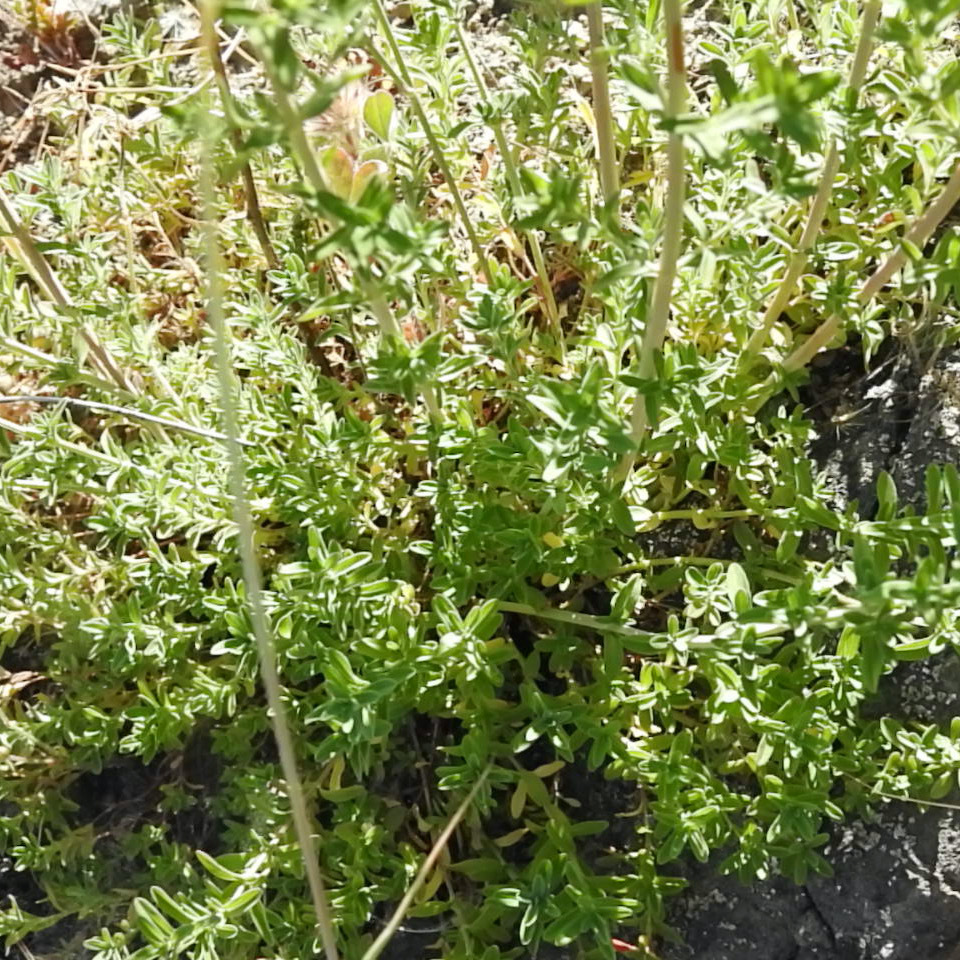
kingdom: Plantae
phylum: Tracheophyta
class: Magnoliopsida
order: Malpighiales
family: Hypericaceae
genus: Hypericum
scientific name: Hypericum perforatum
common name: Common st. johnswort
